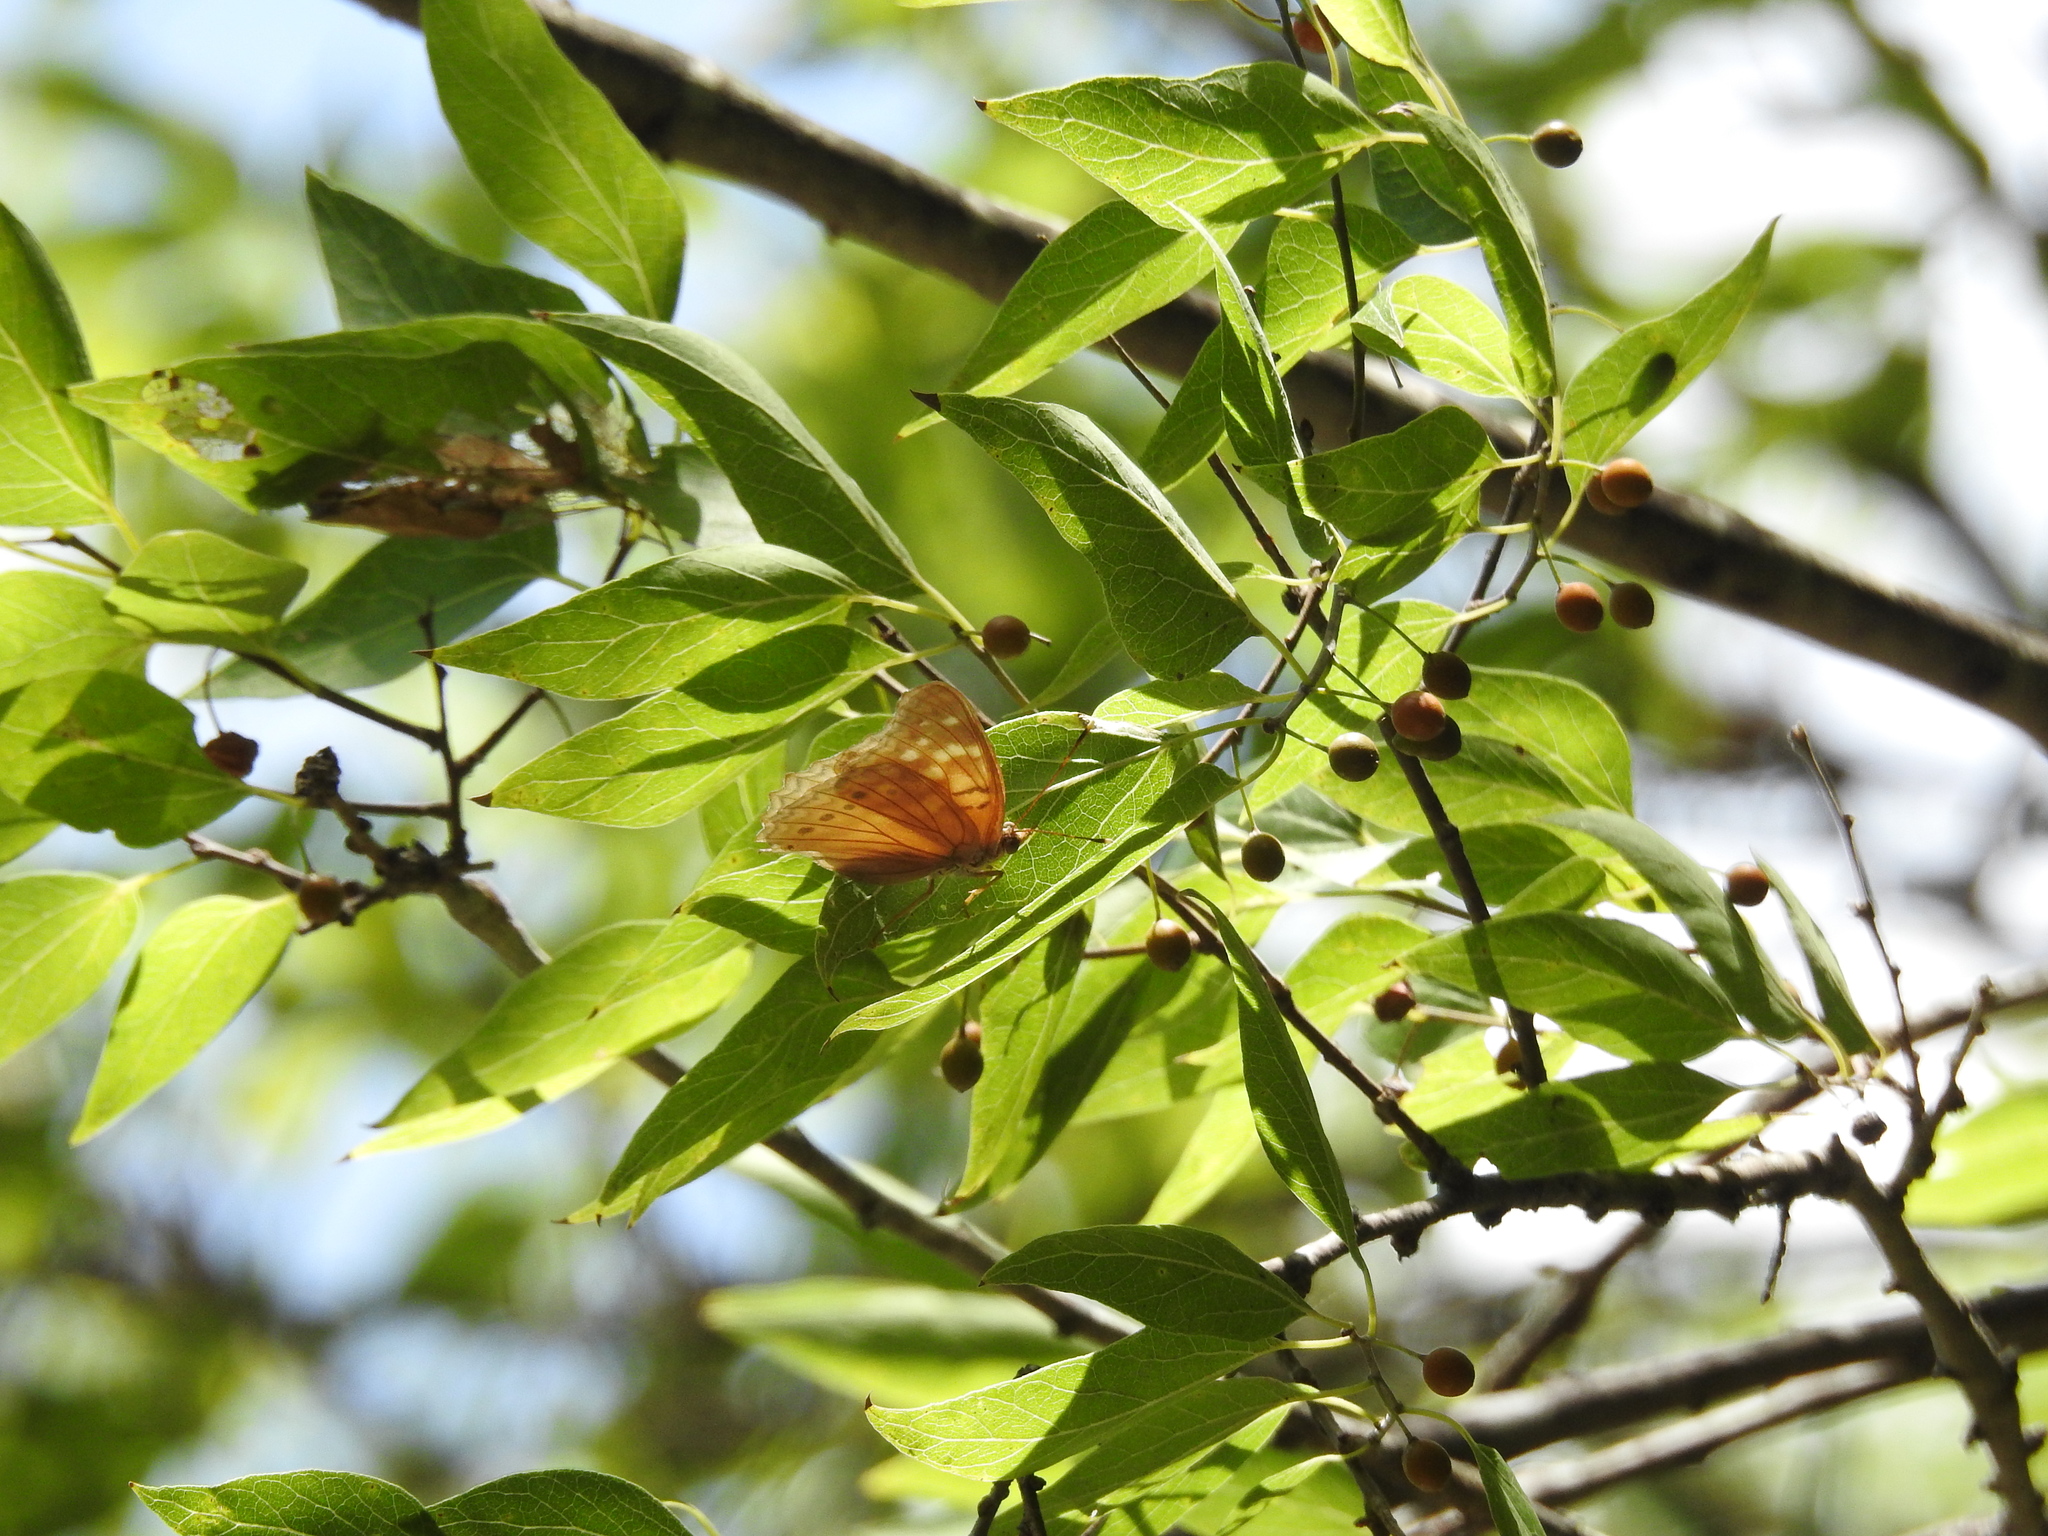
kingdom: Animalia
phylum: Arthropoda
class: Insecta
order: Lepidoptera
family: Nymphalidae
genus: Asterocampa
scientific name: Asterocampa clyton
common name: Tawny emperor
